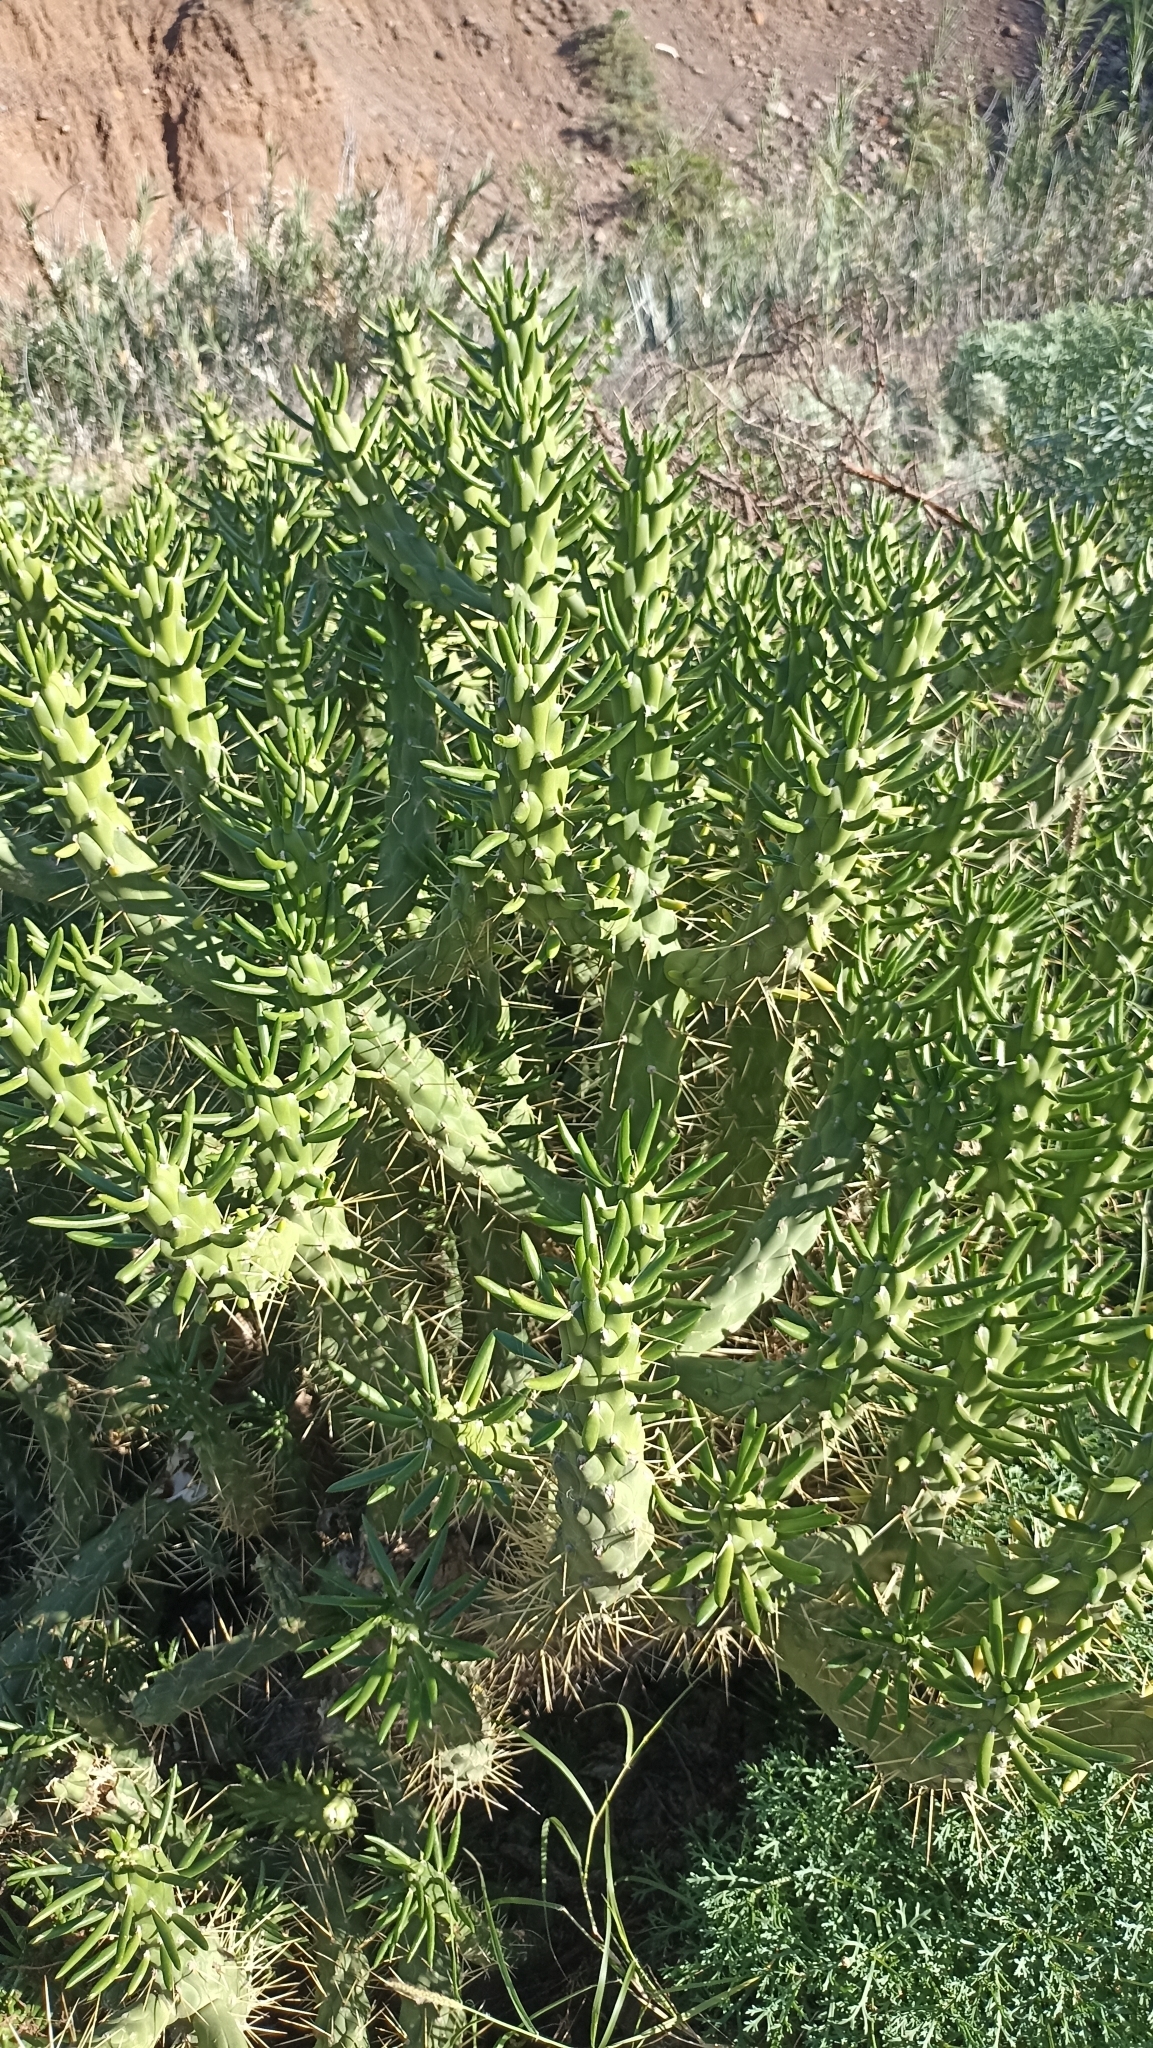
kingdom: Plantae
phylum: Tracheophyta
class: Magnoliopsida
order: Caryophyllales
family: Cactaceae
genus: Austrocylindropuntia
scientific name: Austrocylindropuntia subulata
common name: Eve's needle cactus
